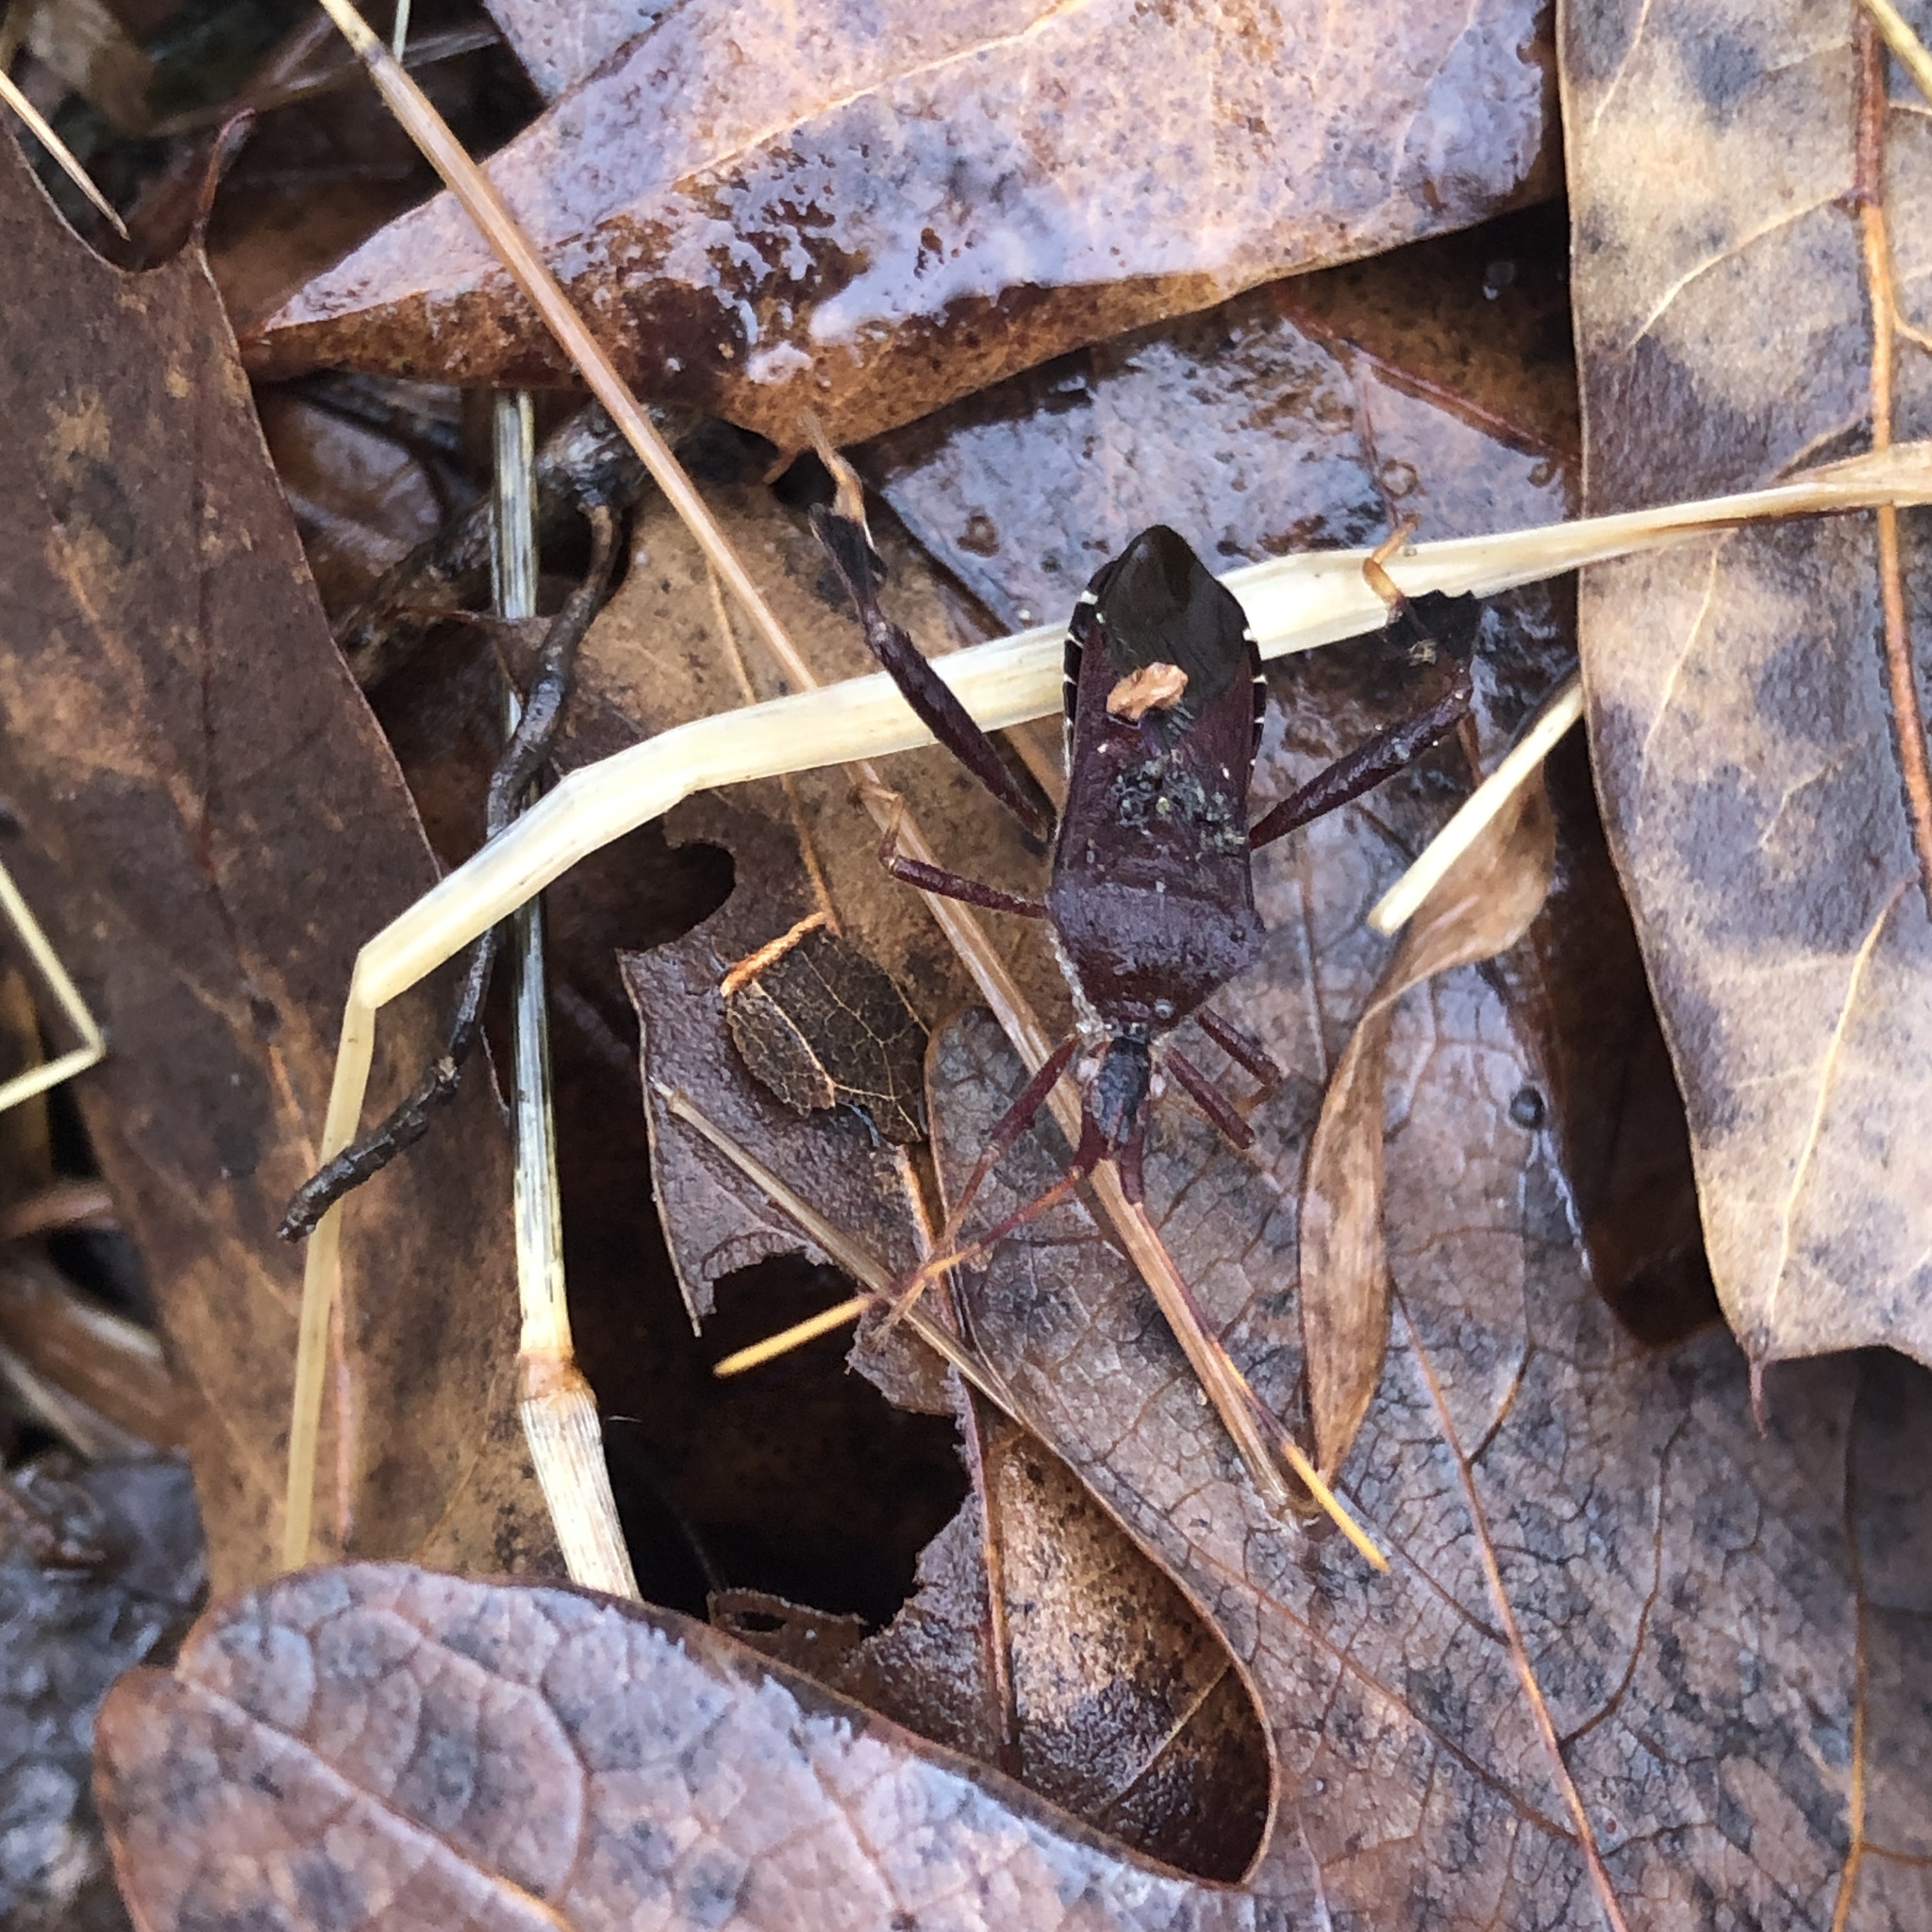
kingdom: Animalia
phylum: Arthropoda
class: Insecta
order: Hemiptera
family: Coreidae
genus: Leptoglossus
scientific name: Leptoglossus oppositus
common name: Northern leaf-footed bug
